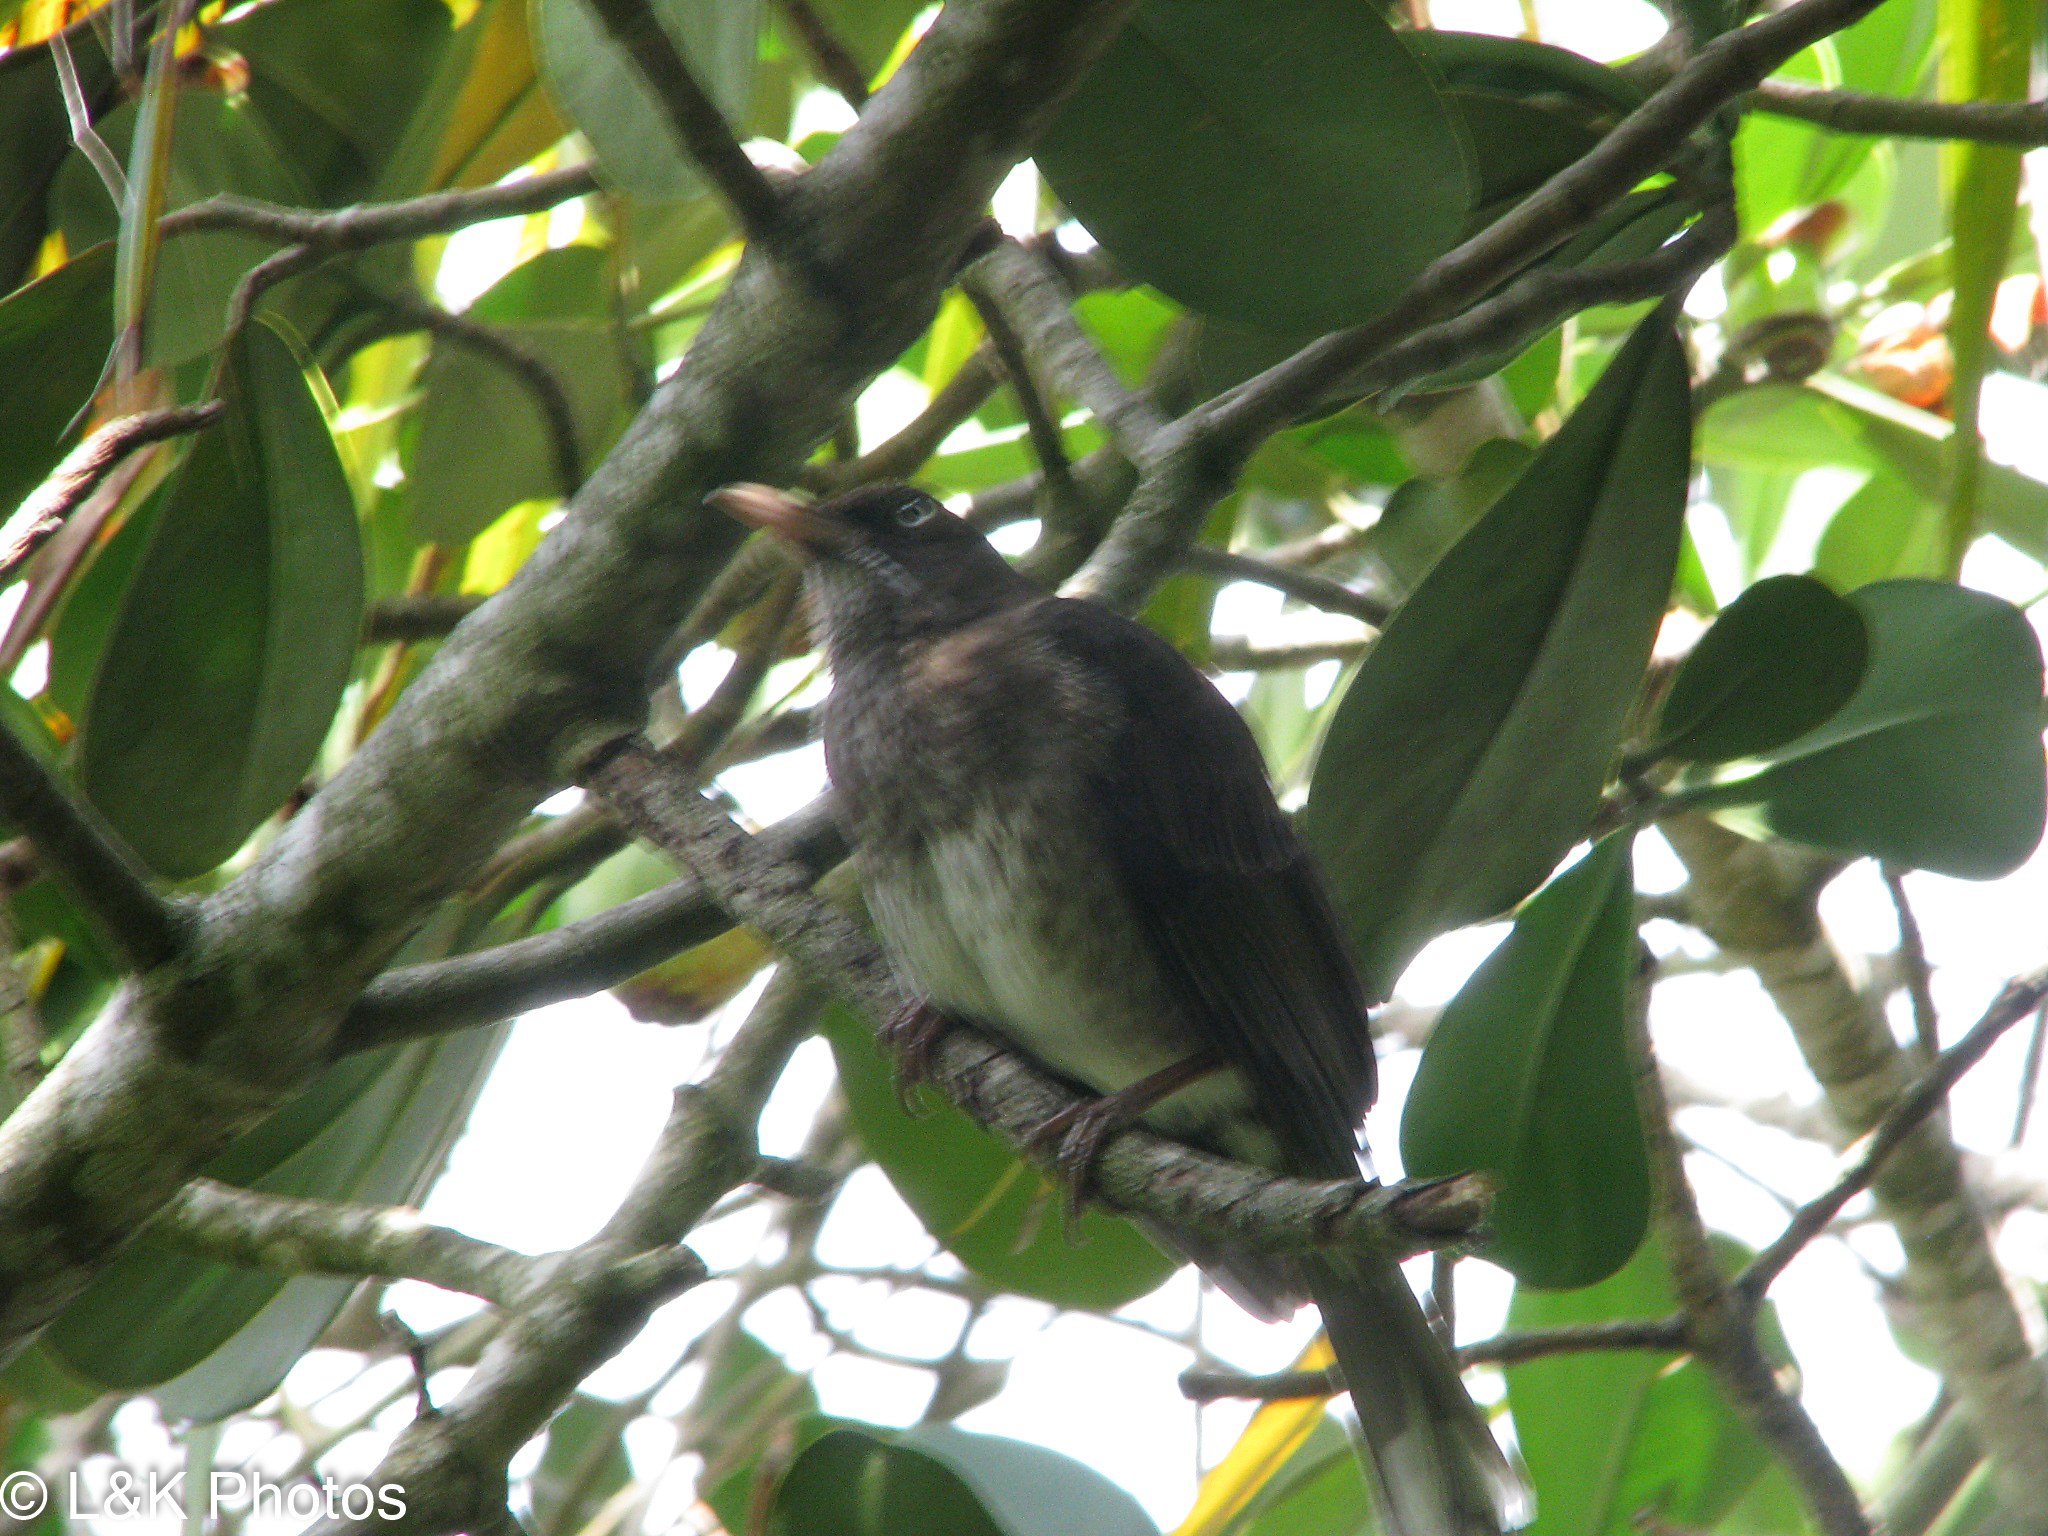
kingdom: Animalia
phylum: Chordata
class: Aves
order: Passeriformes
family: Mimidae
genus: Margarops
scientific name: Margarops fuscatus
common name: Pearly-eyed thrasher
